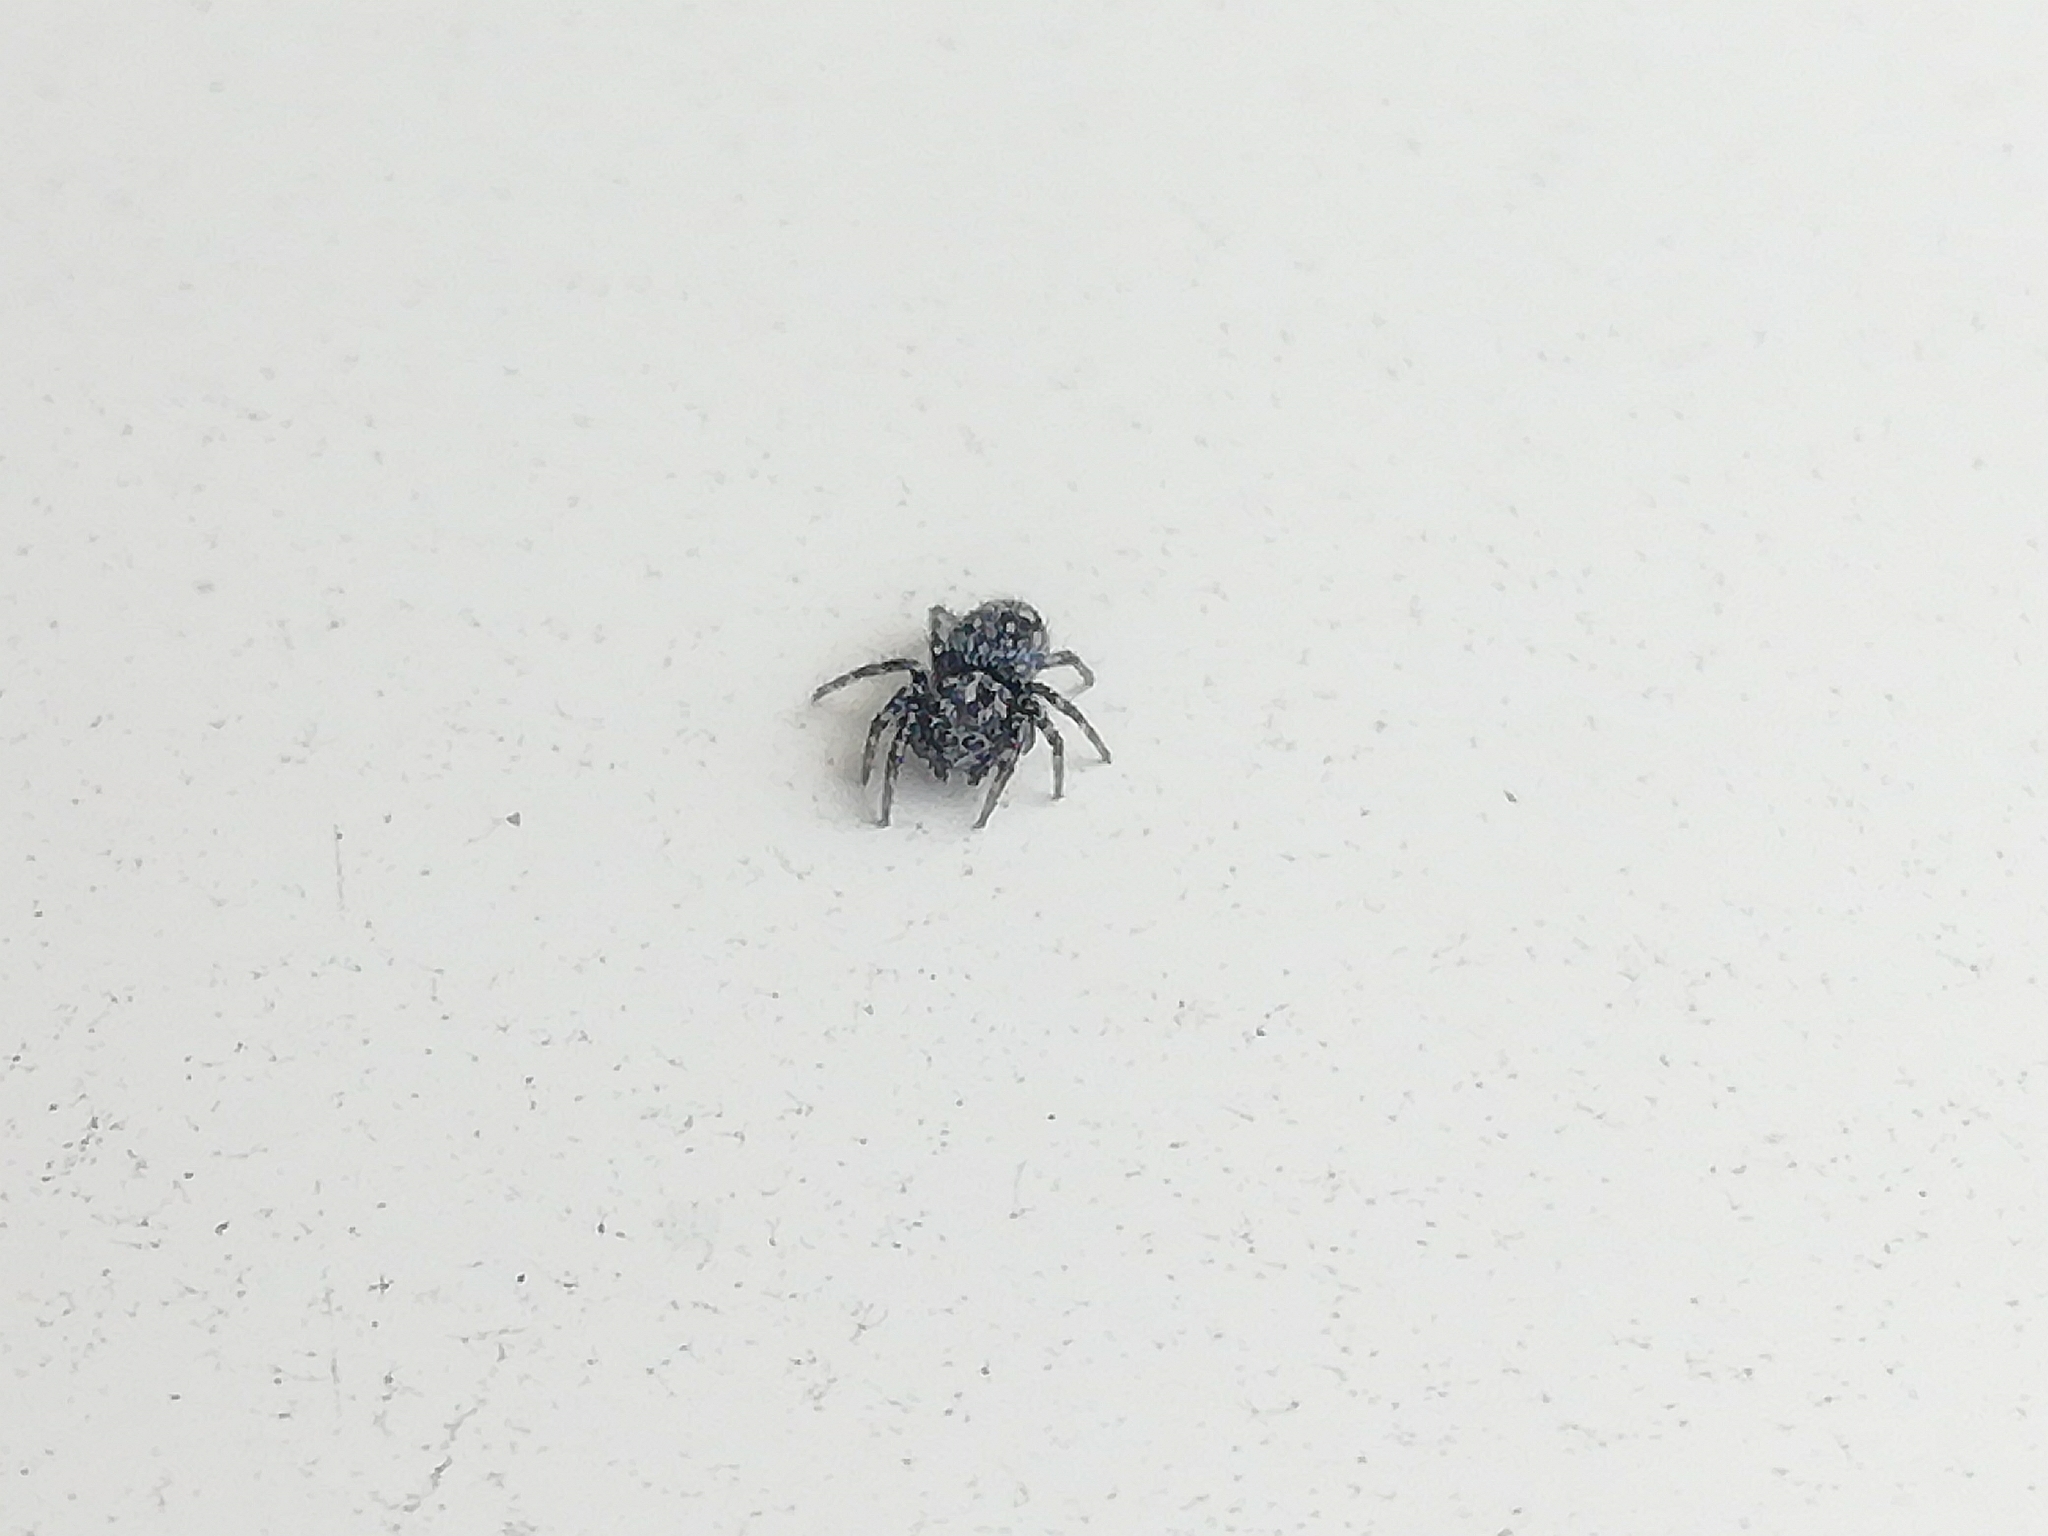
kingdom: Animalia
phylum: Arthropoda
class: Arachnida
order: Araneae
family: Salticidae
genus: Attulus
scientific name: Attulus terebratus
